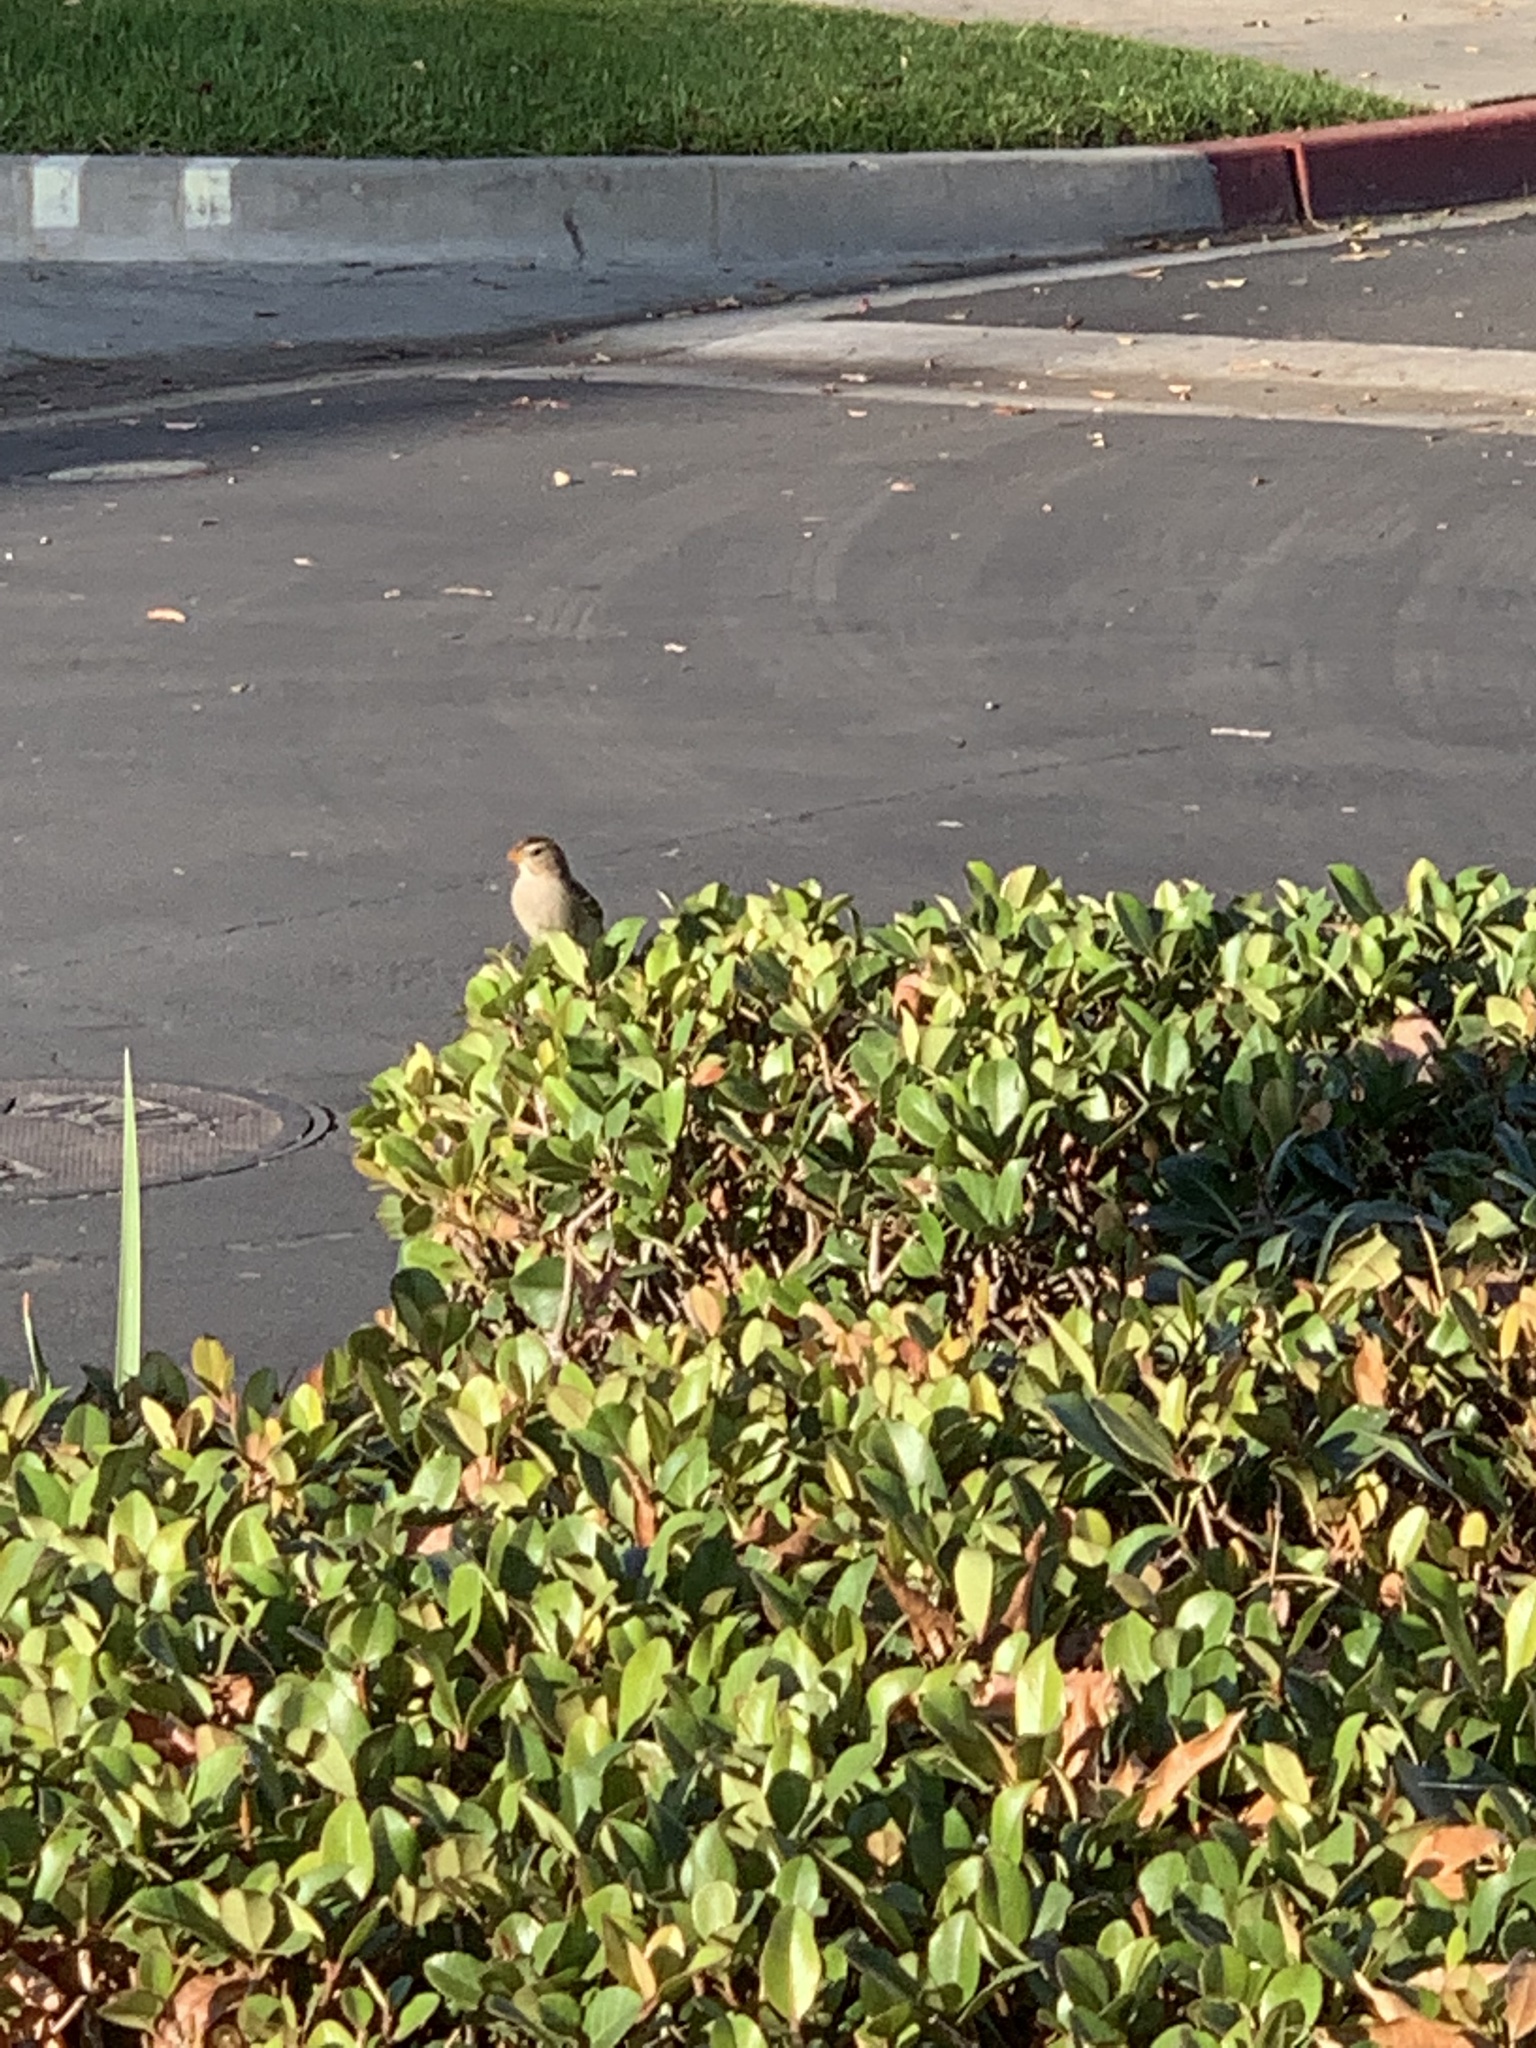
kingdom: Animalia
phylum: Chordata
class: Aves
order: Passeriformes
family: Passerellidae
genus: Zonotrichia
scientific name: Zonotrichia leucophrys
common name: White-crowned sparrow
